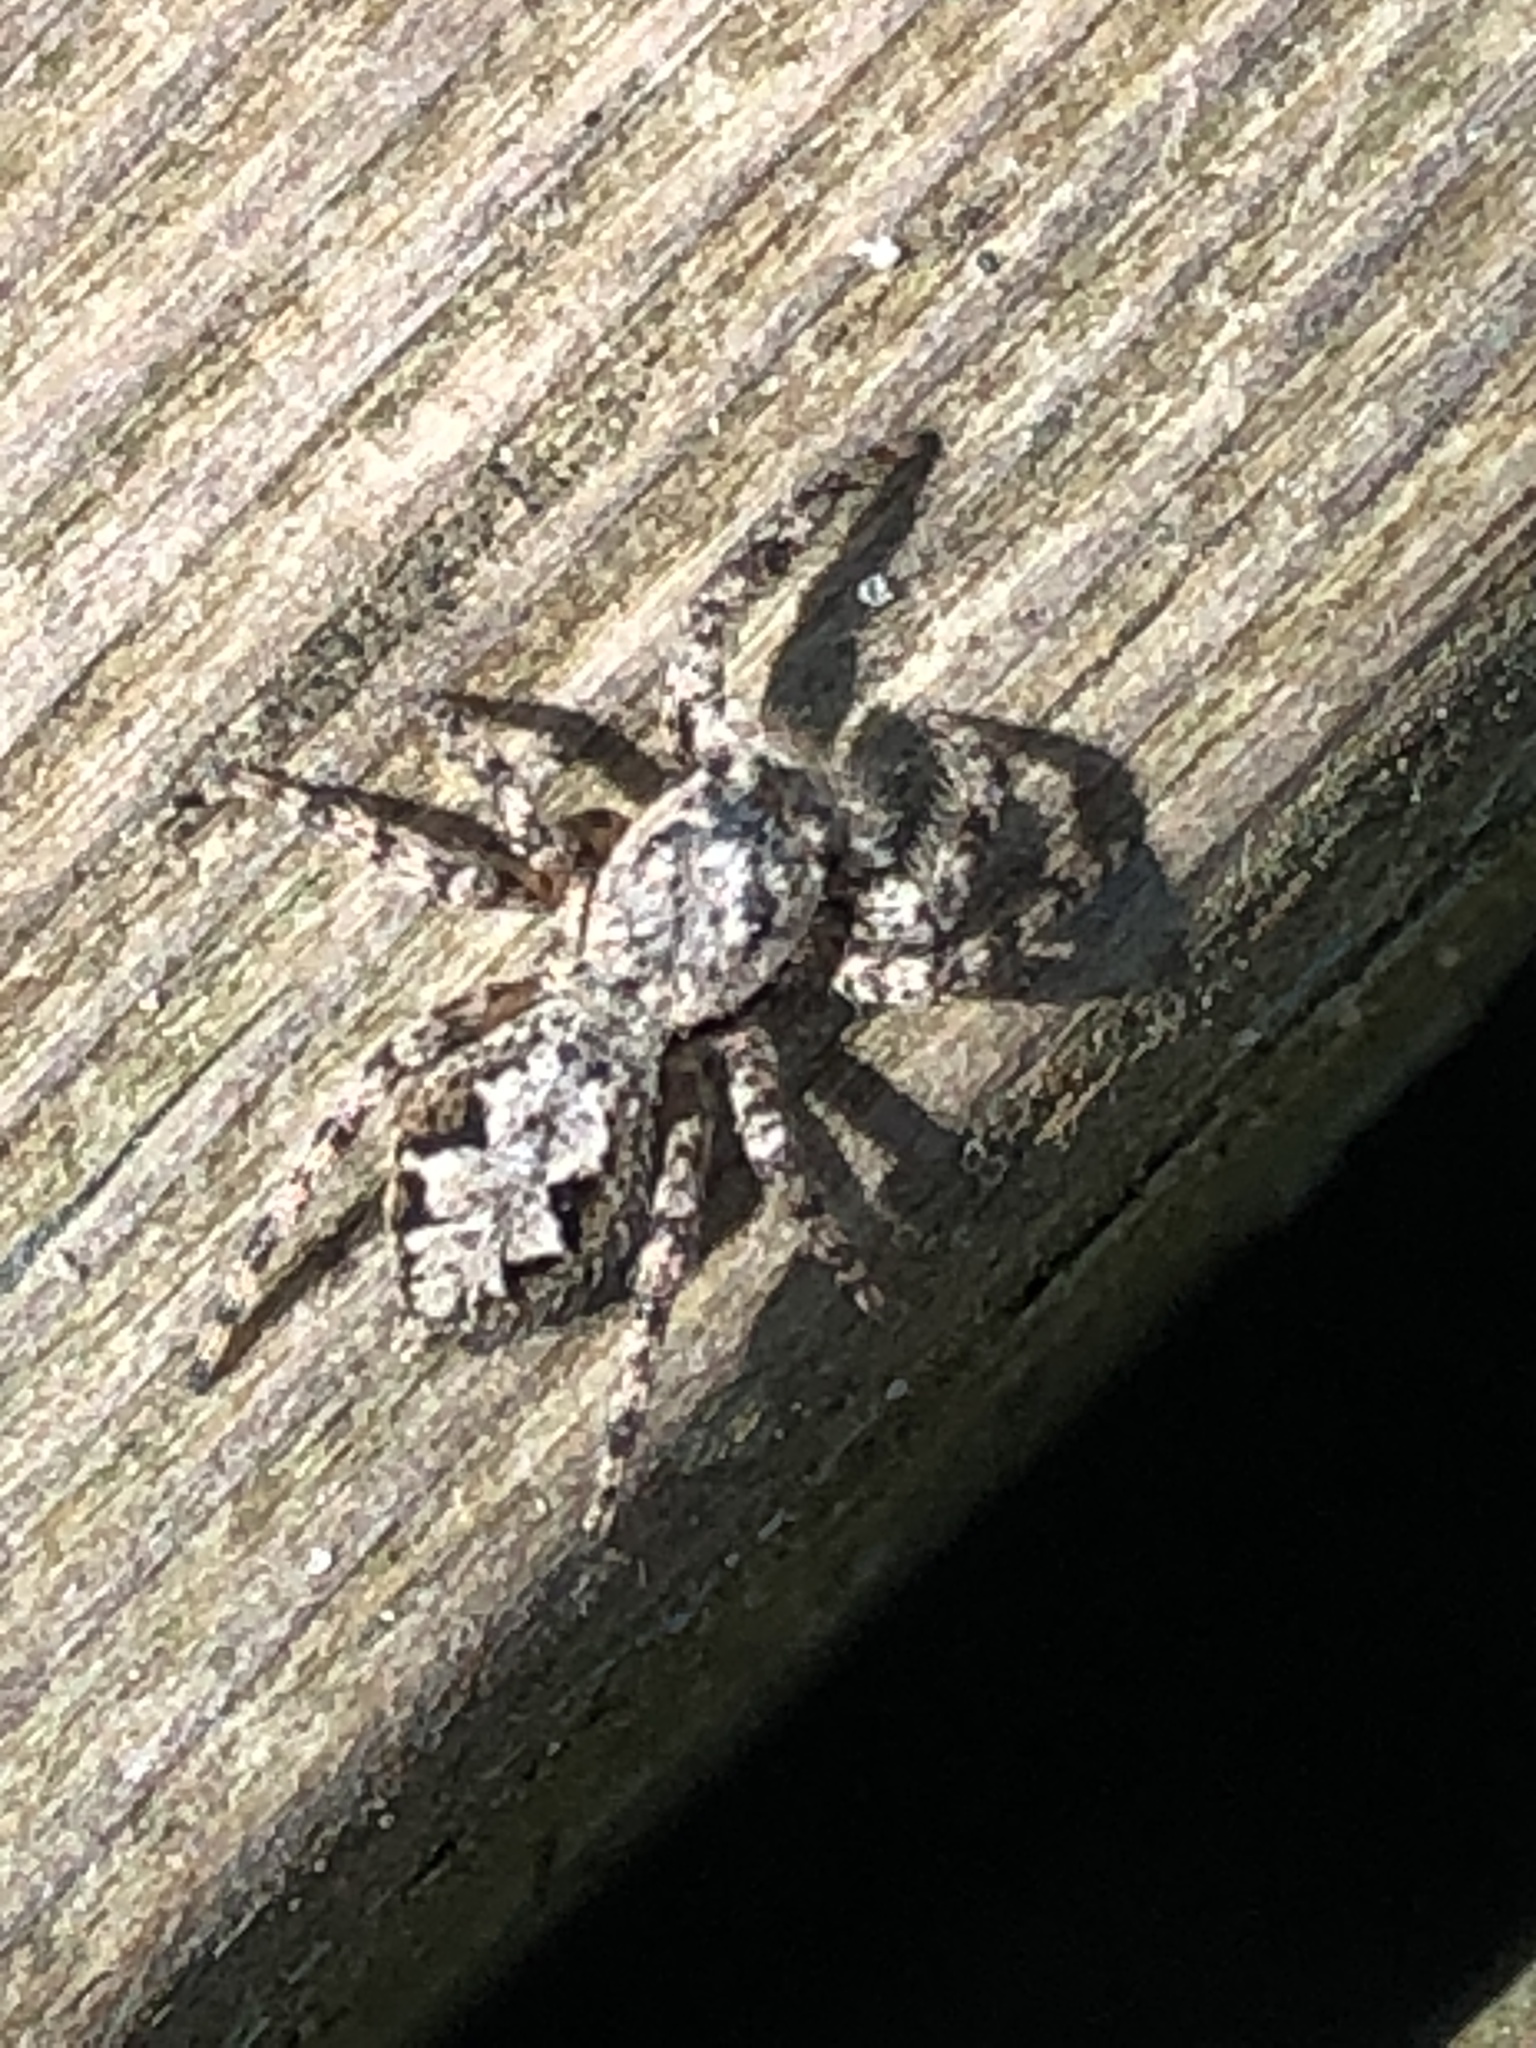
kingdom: Animalia
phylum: Arthropoda
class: Arachnida
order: Araneae
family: Salticidae
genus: Platycryptus
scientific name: Platycryptus undatus
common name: Tan jumping spider
